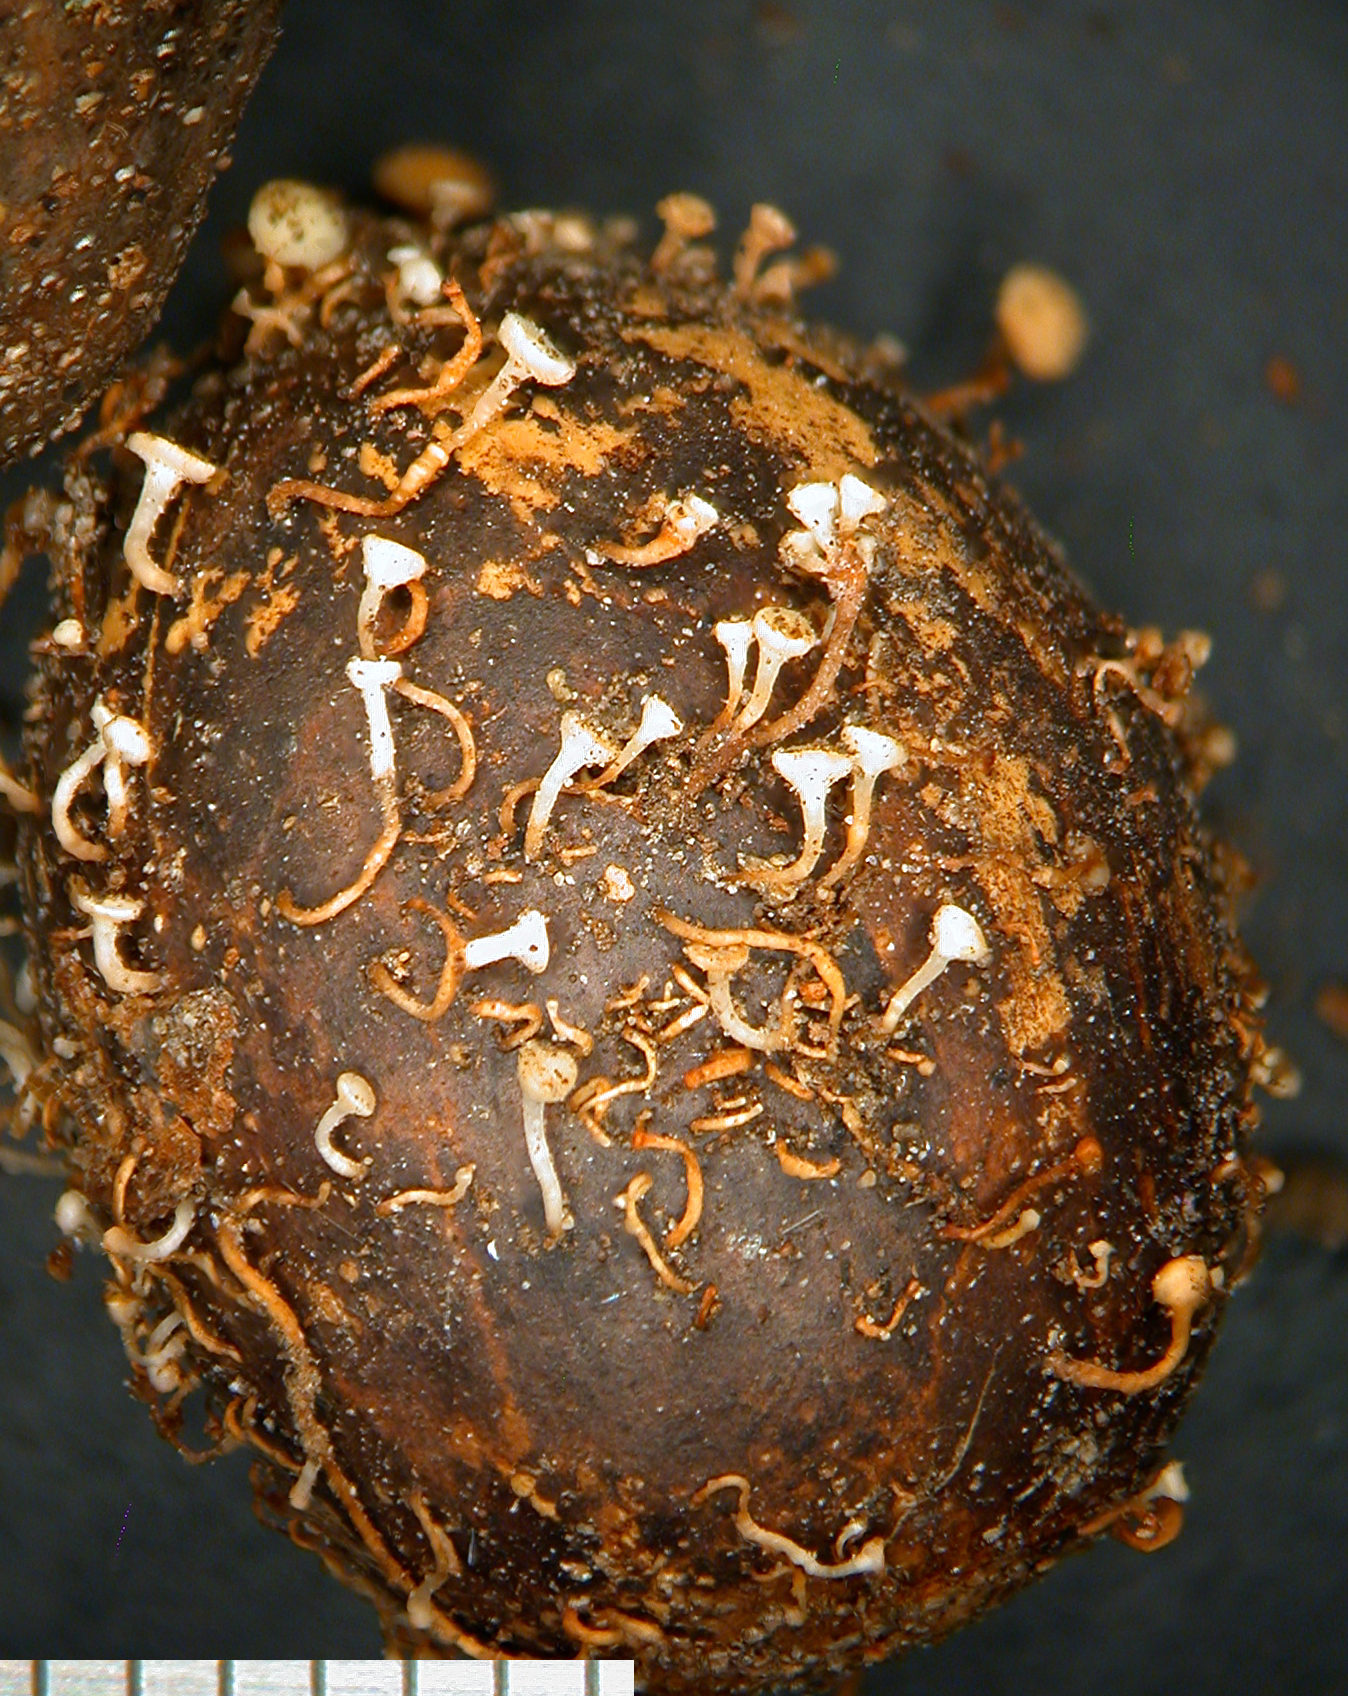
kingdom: Fungi
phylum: Ascomycota
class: Leotiomycetes
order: Helotiales
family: Helotiaceae
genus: Hymenoscyphus
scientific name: Hymenoscyphus fructigenus
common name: Nut disco
